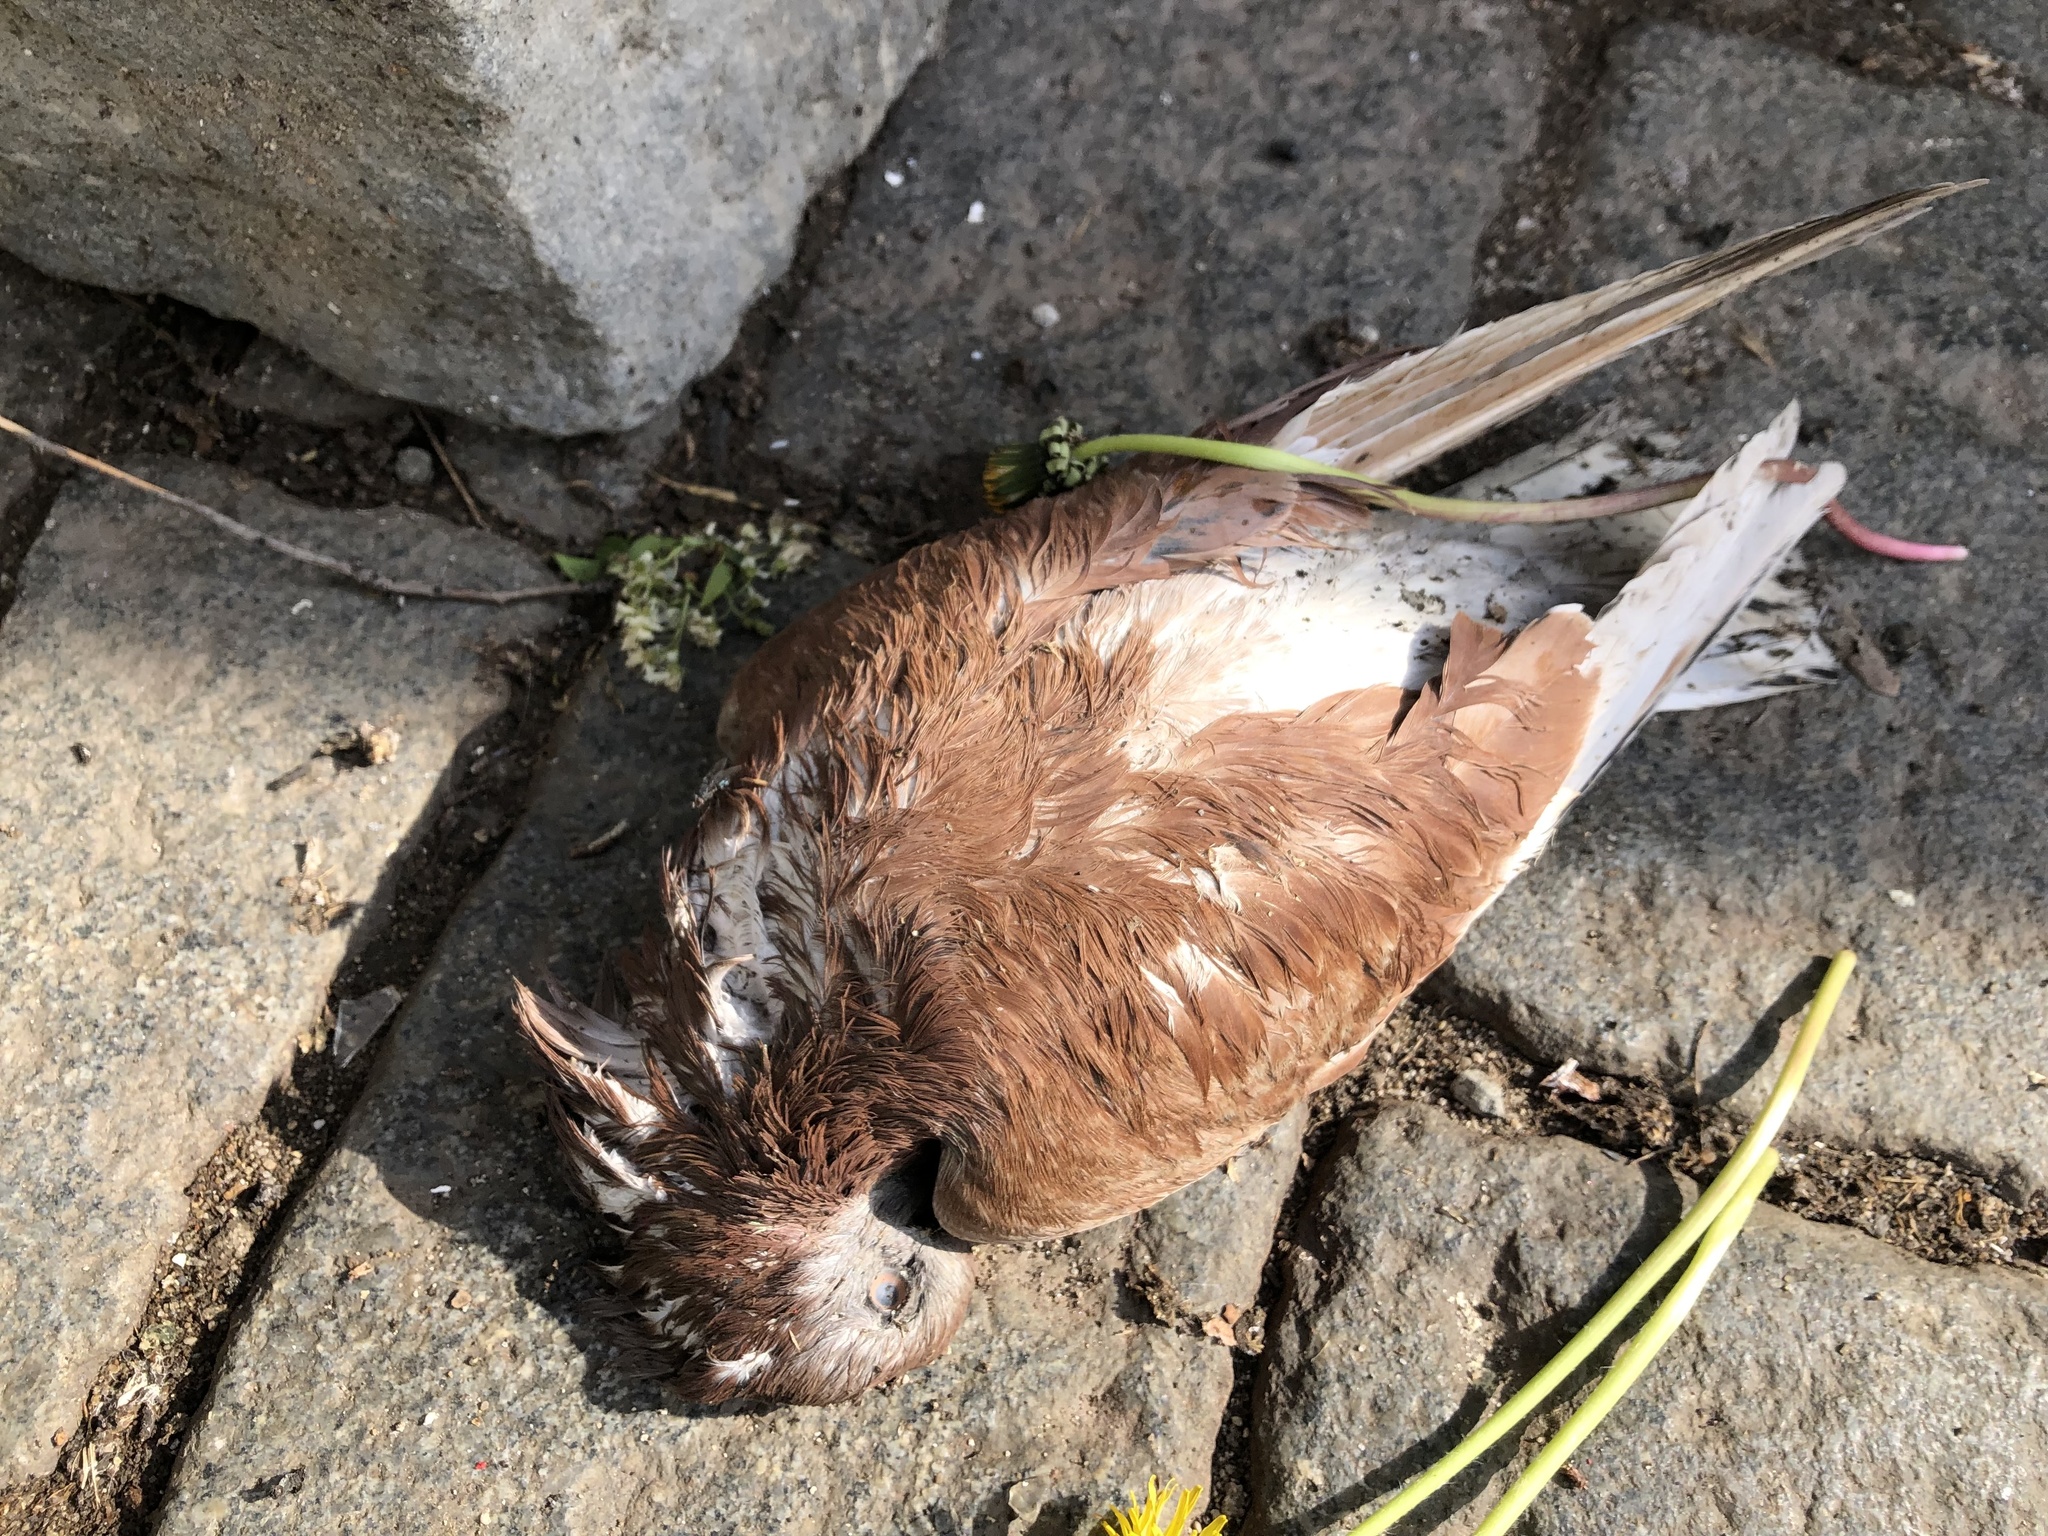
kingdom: Animalia
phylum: Chordata
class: Aves
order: Columbiformes
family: Columbidae
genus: Columba
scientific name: Columba livia
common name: Rock pigeon
